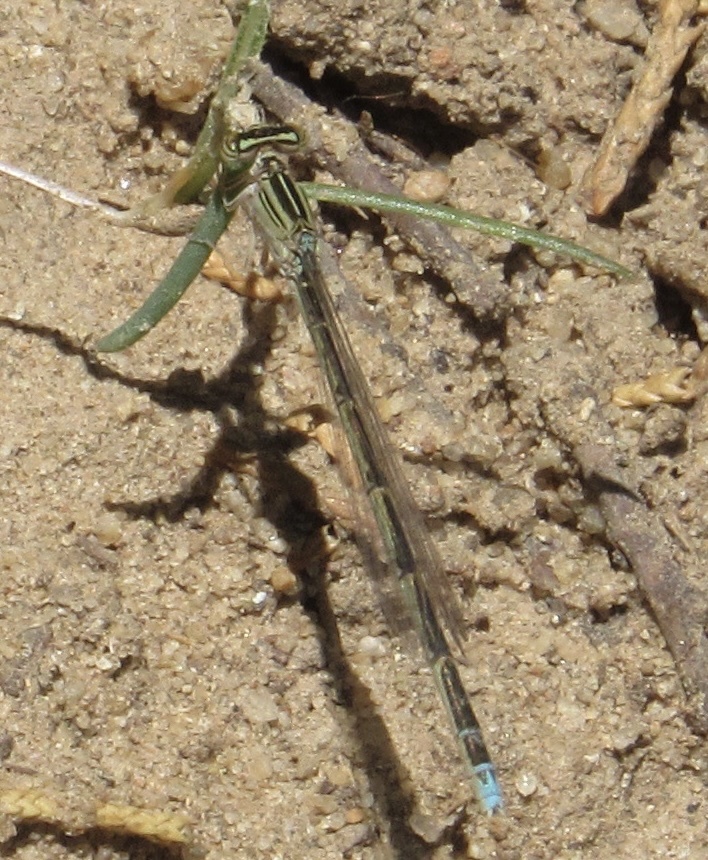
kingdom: Animalia
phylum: Arthropoda
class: Insecta
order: Odonata
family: Coenagrionidae
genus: Enallagma
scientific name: Enallagma basidens
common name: Double-striped bluet
